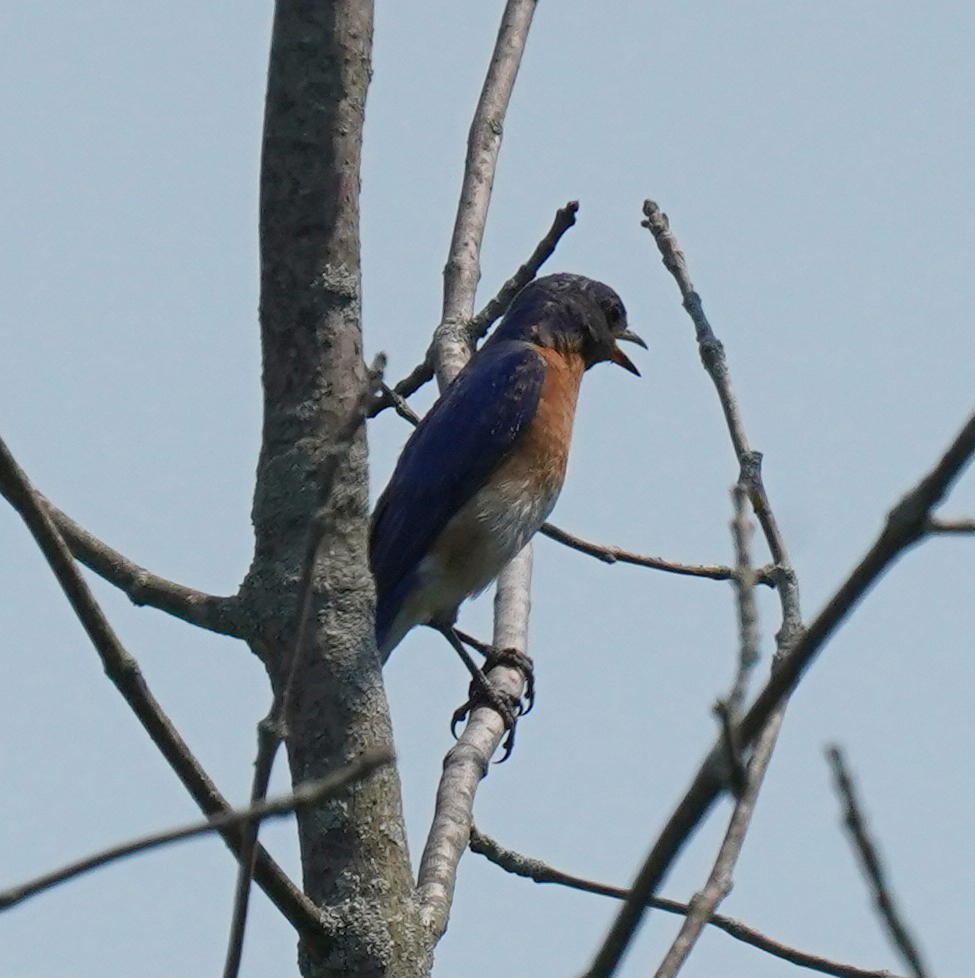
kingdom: Animalia
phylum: Chordata
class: Aves
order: Passeriformes
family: Turdidae
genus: Sialia
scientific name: Sialia sialis
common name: Eastern bluebird
